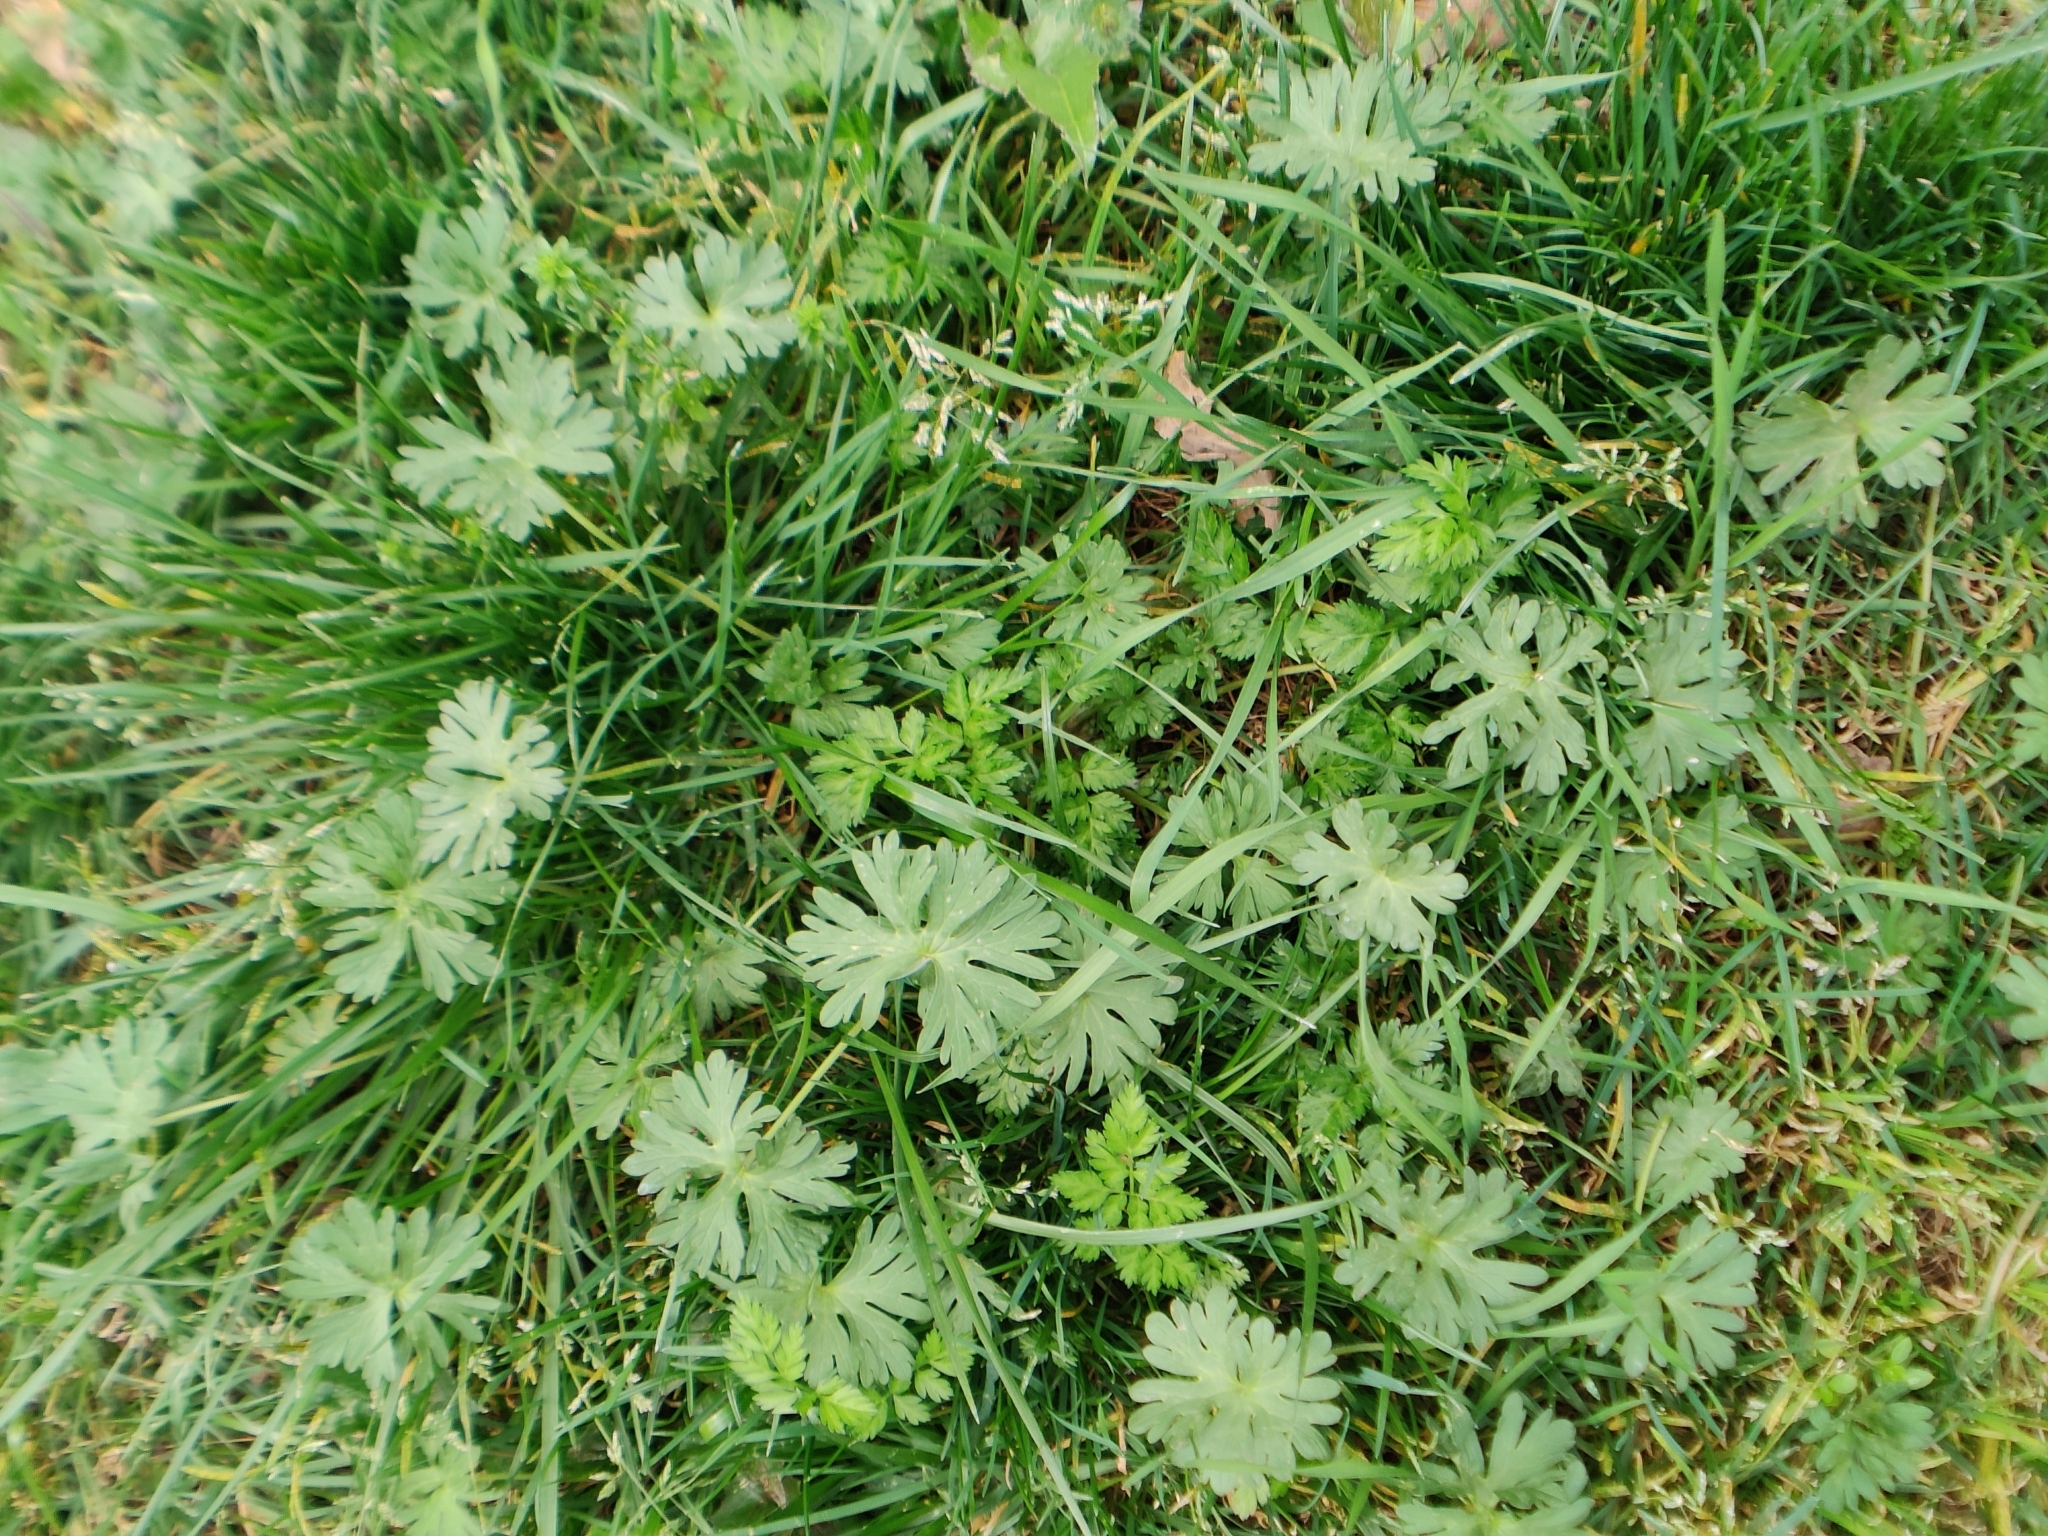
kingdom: Plantae
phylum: Tracheophyta
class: Magnoliopsida
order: Geraniales
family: Geraniaceae
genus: Geranium
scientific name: Geranium
